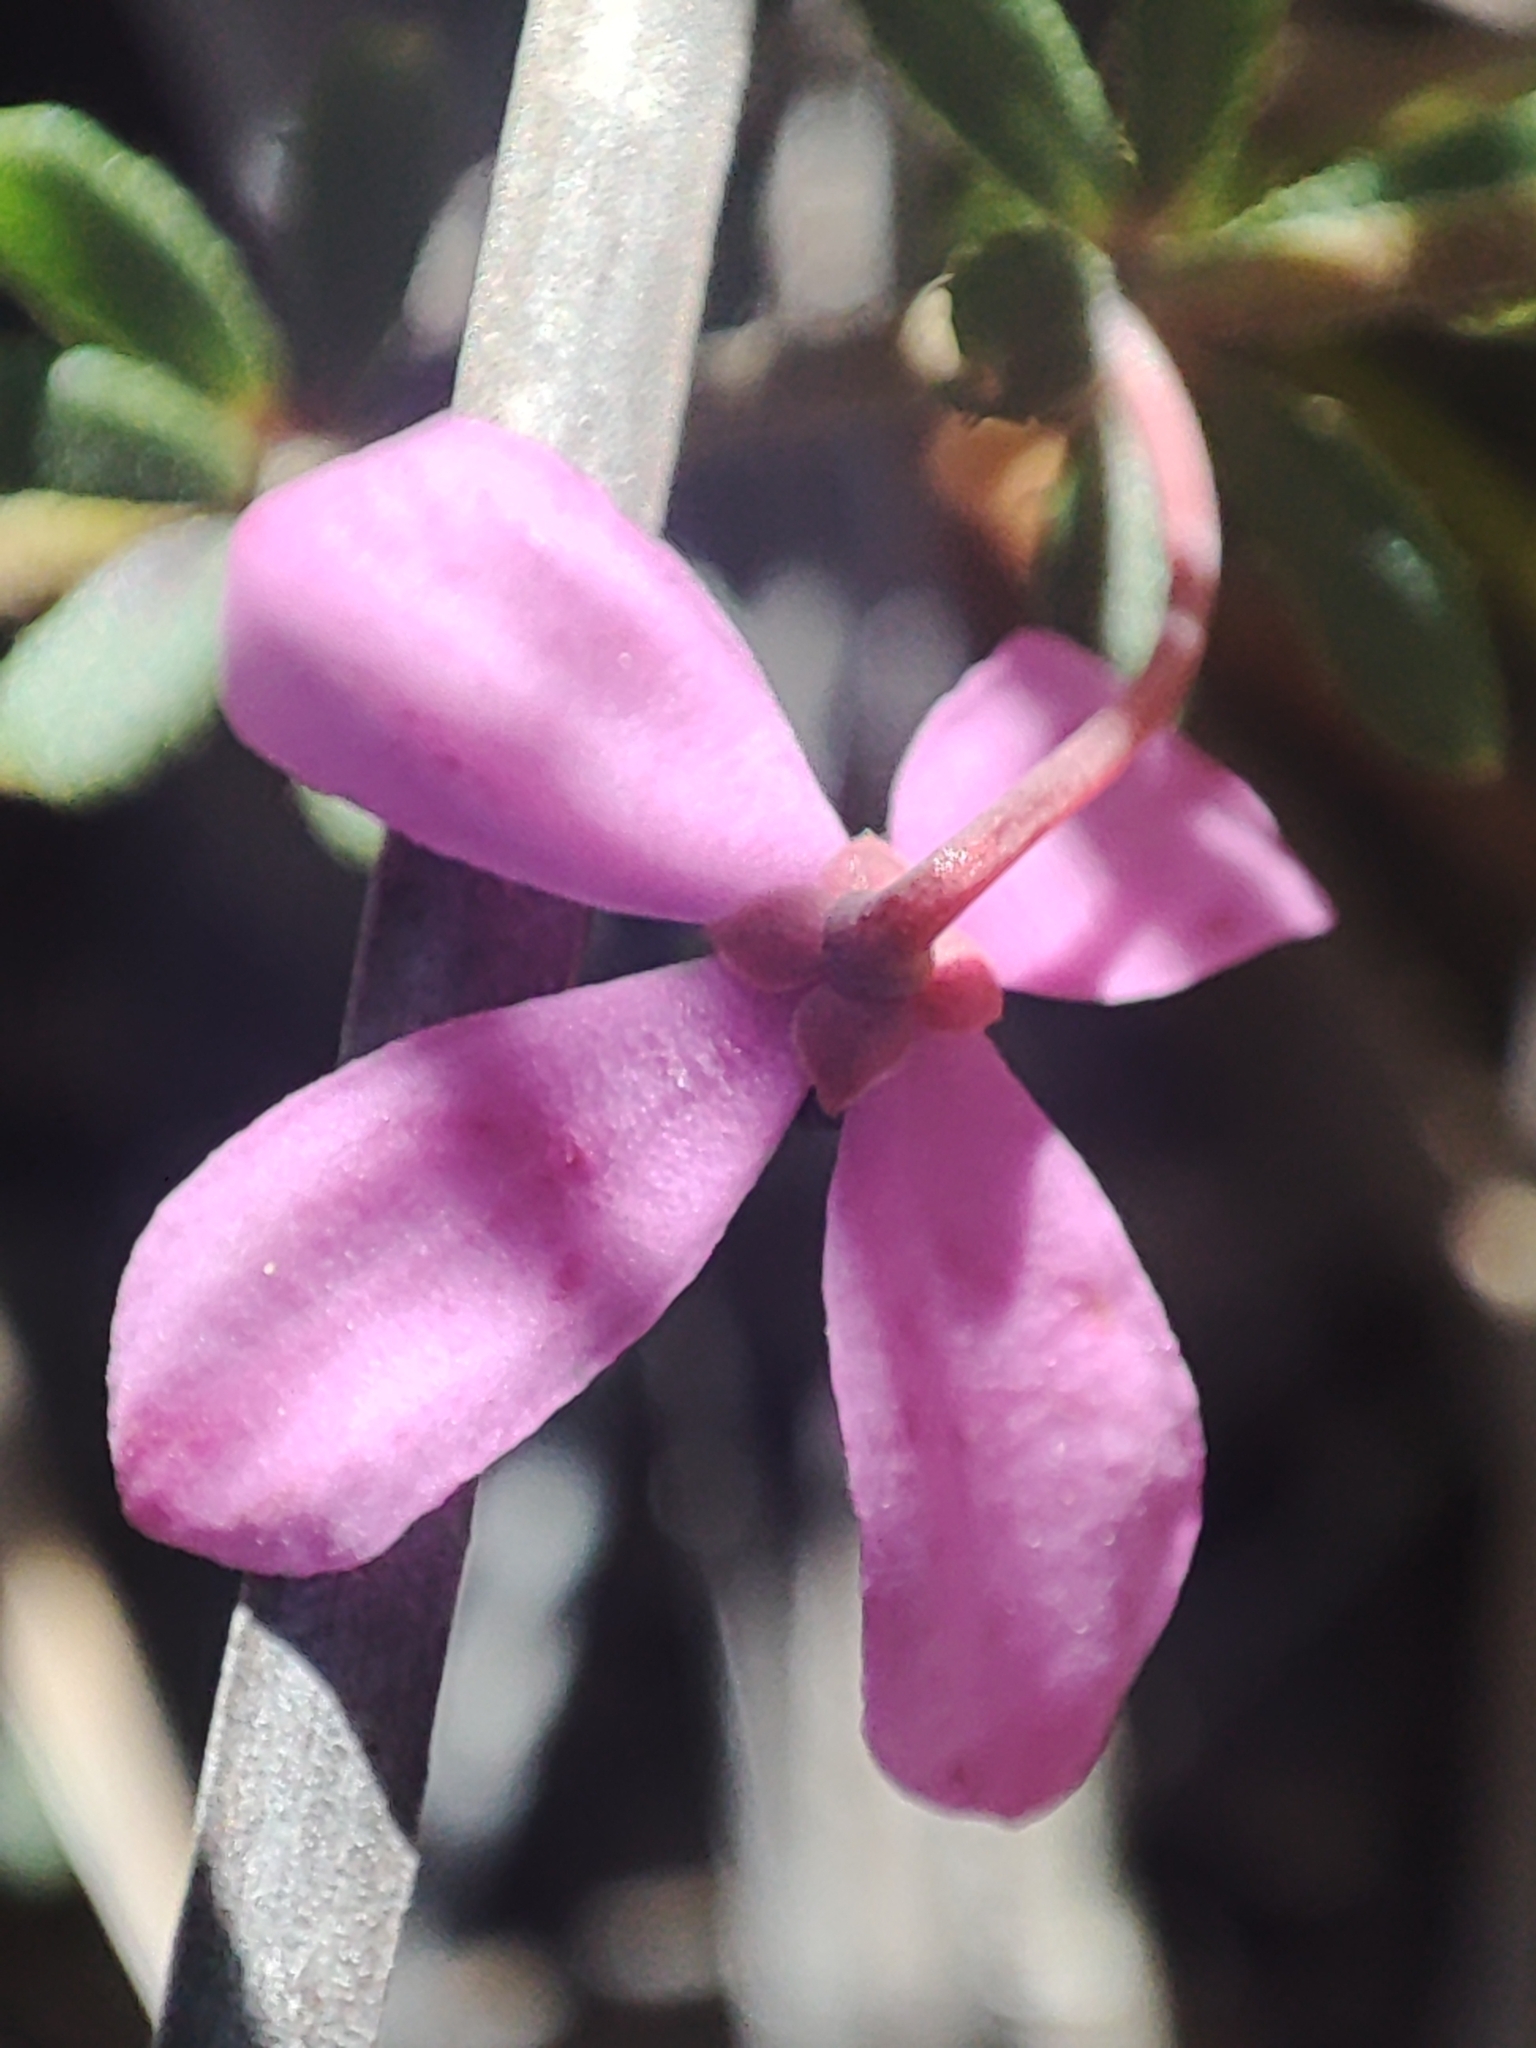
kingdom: Plantae
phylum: Tracheophyta
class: Magnoliopsida
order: Oxalidales
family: Elaeocarpaceae
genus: Tetratheca
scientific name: Tetratheca bauerifolia
